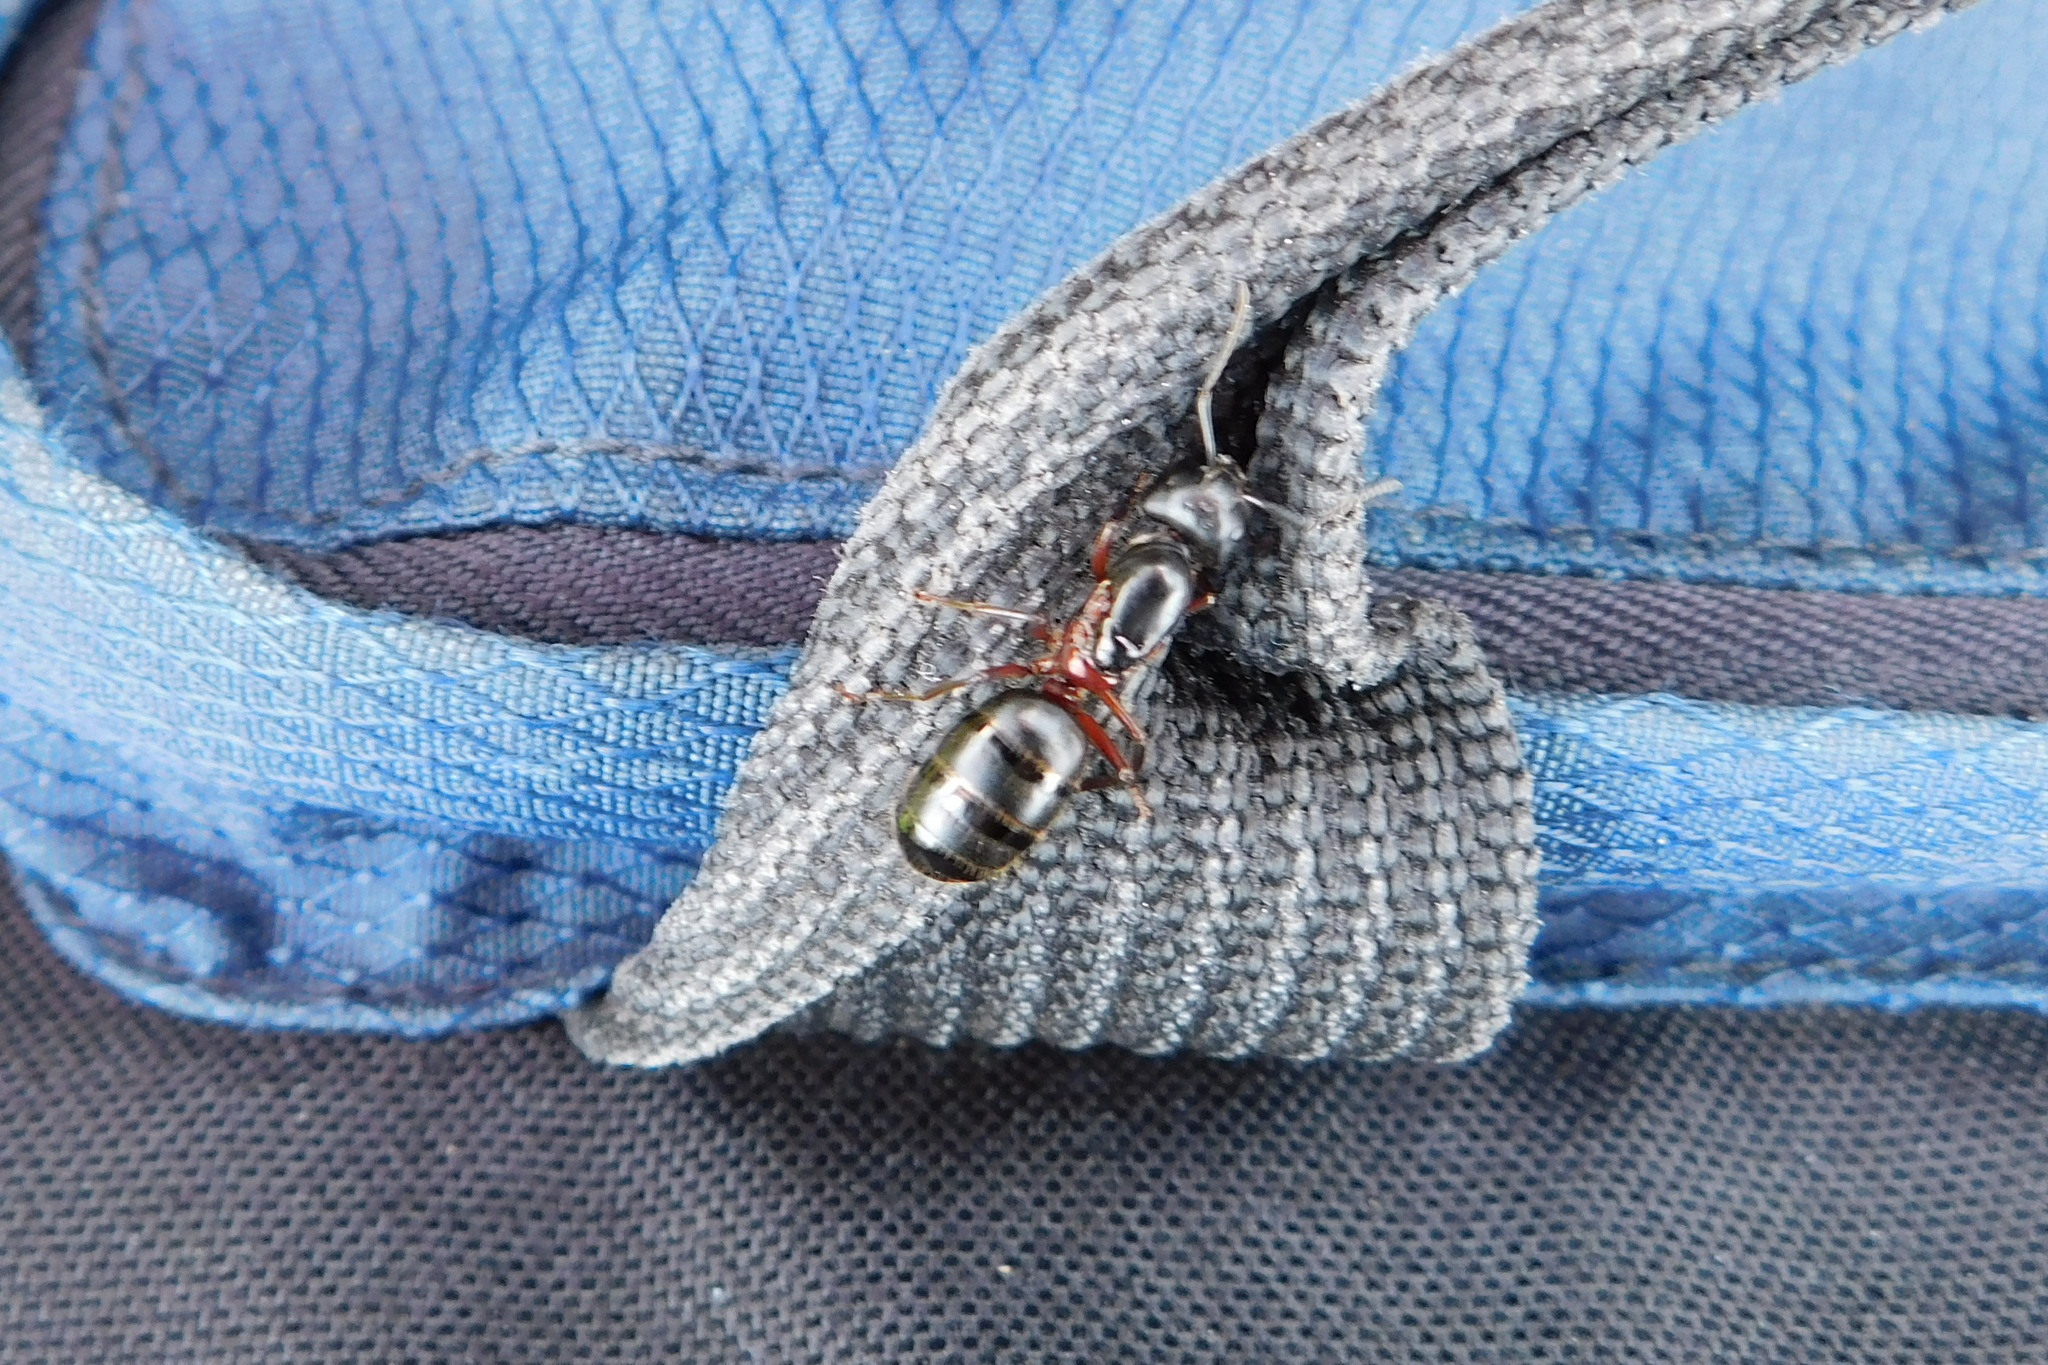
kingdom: Animalia
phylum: Arthropoda
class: Insecta
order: Hymenoptera
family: Formicidae
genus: Camponotus
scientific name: Camponotus herculeanus
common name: Hercules ant
